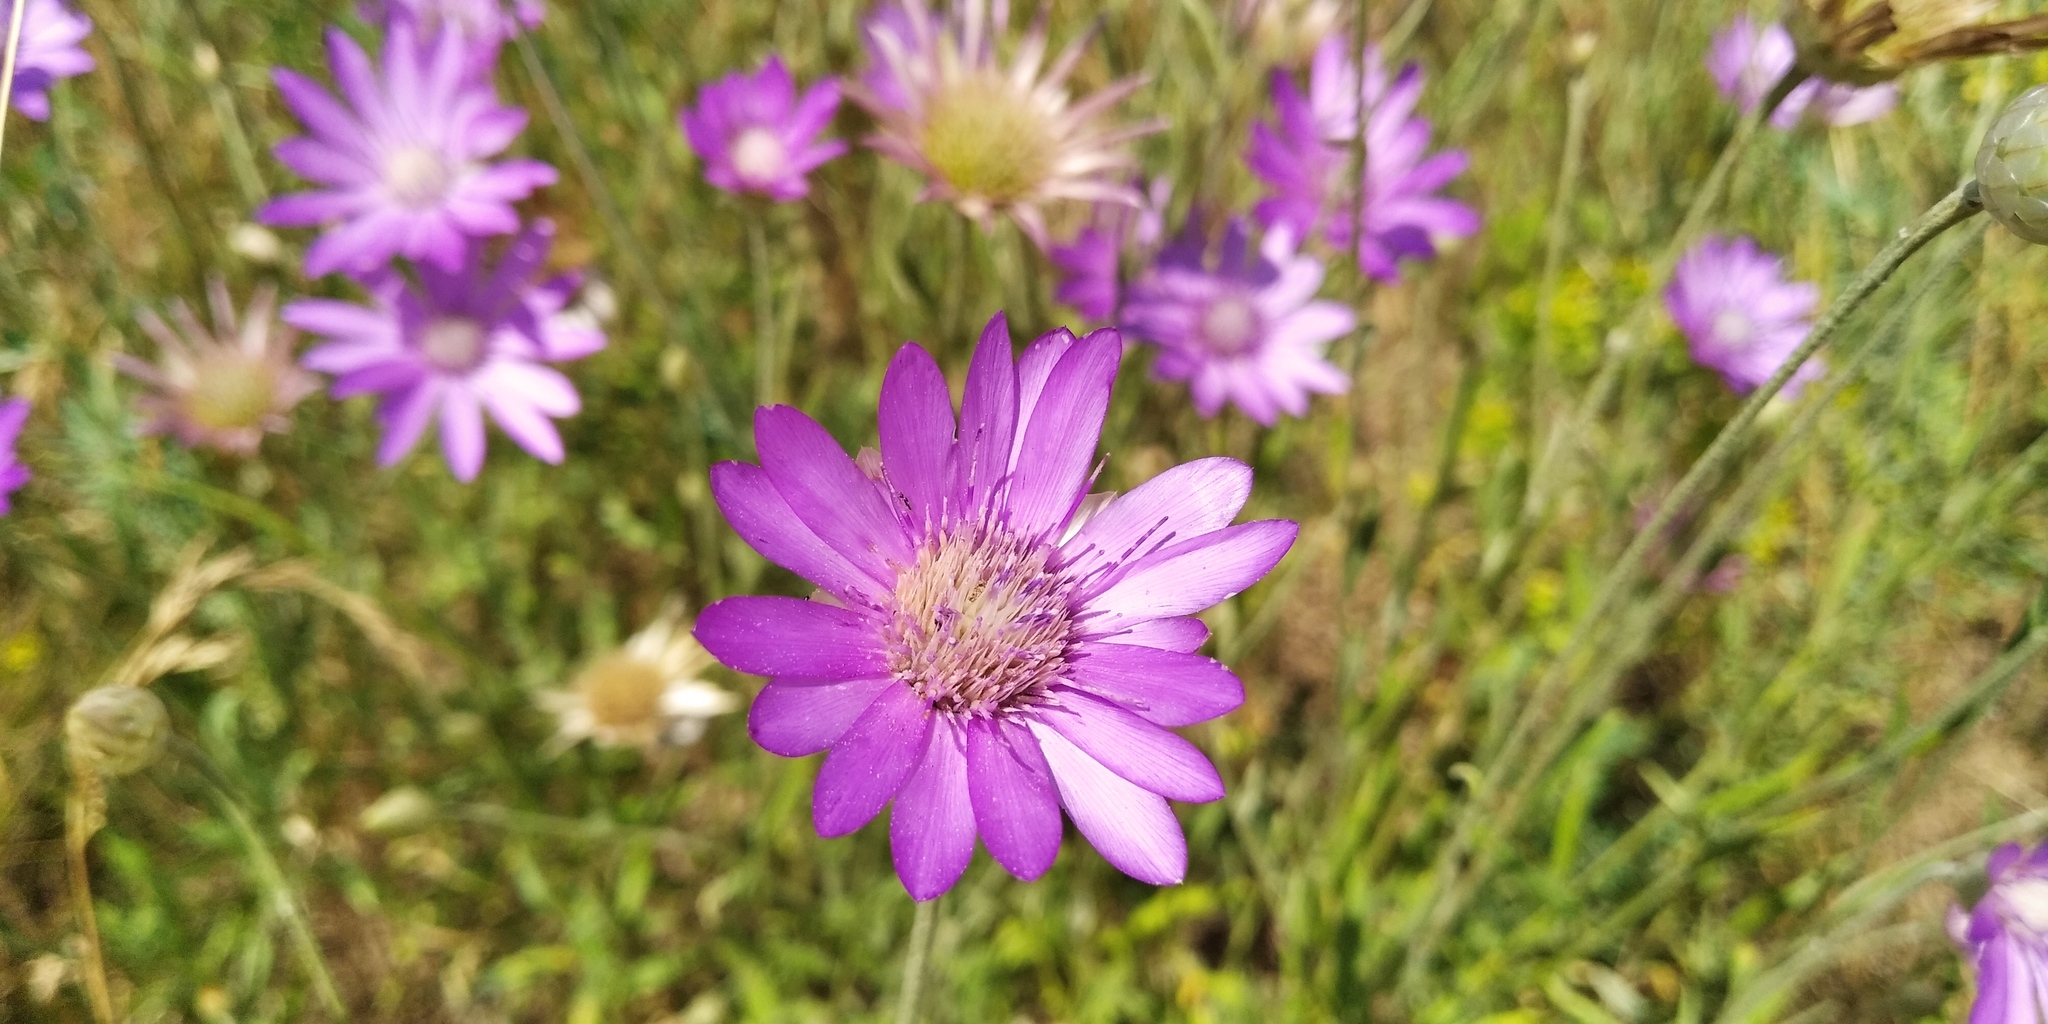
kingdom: Plantae
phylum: Tracheophyta
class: Magnoliopsida
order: Asterales
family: Asteraceae
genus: Xeranthemum
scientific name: Xeranthemum annuum
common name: Immortelle
